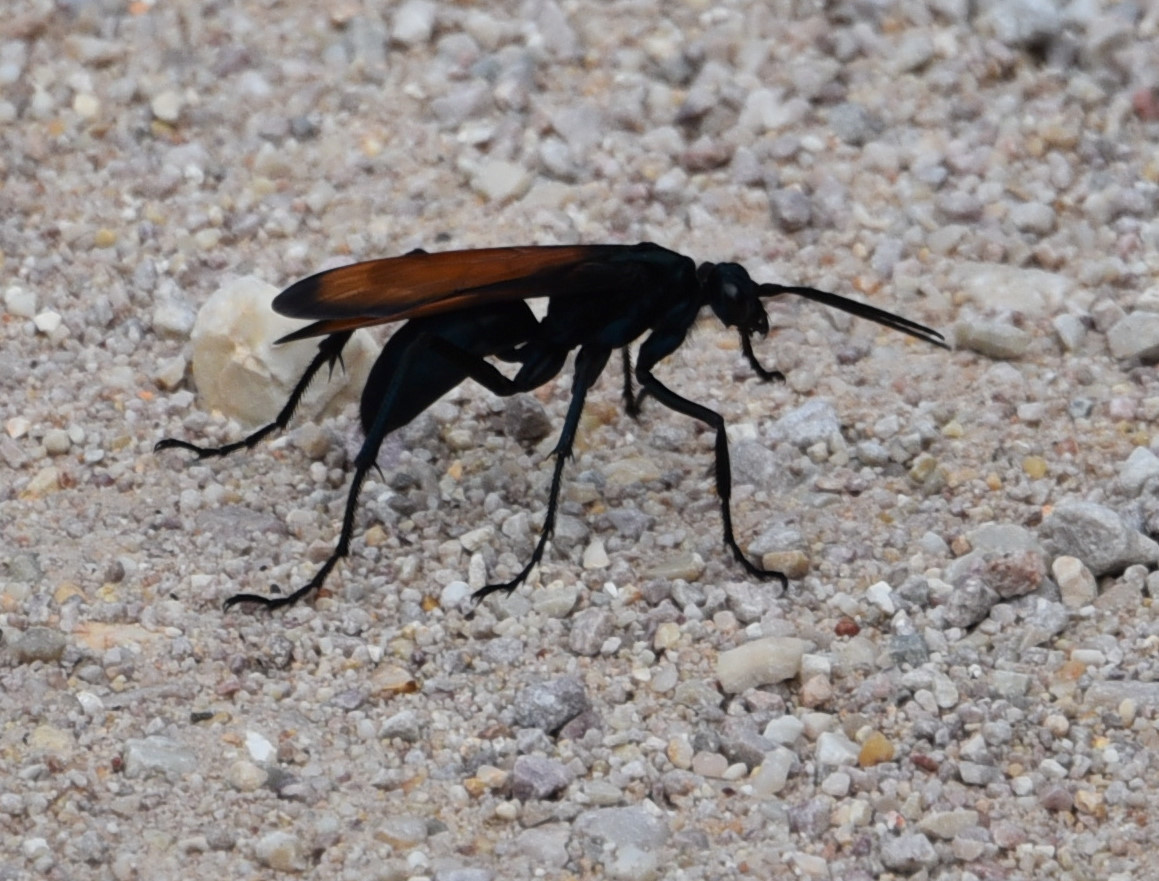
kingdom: Animalia
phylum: Arthropoda
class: Insecta
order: Hymenoptera
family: Pompilidae
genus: Pepsis
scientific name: Pepsis thisbe
